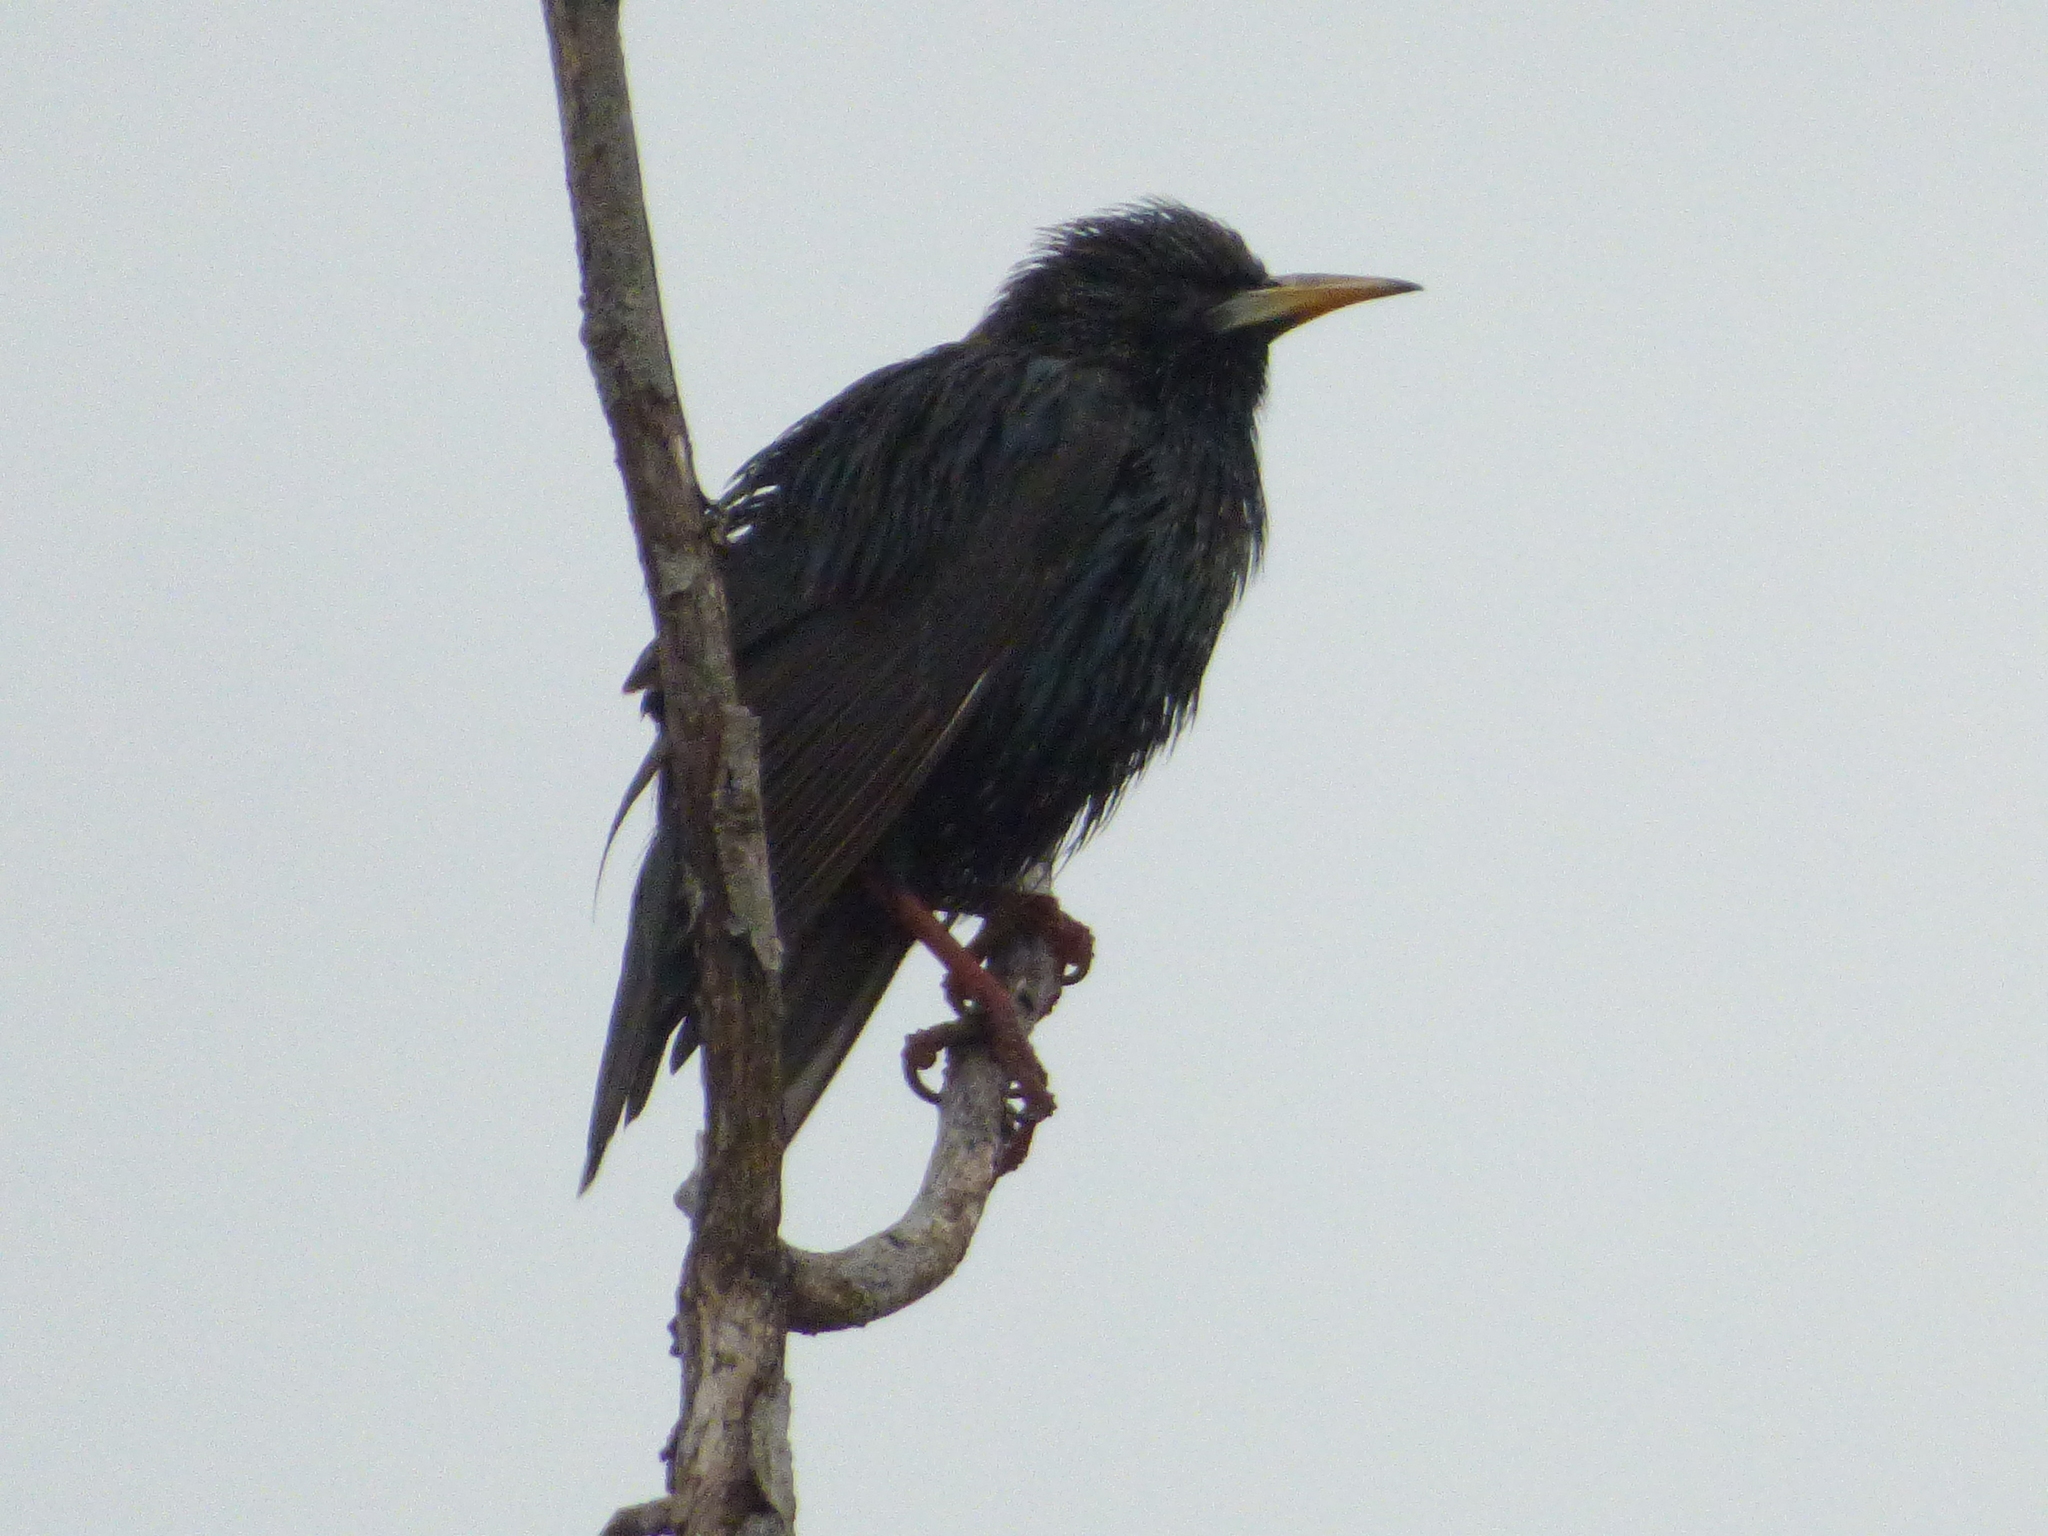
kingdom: Animalia
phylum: Chordata
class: Aves
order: Passeriformes
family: Sturnidae
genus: Sturnus
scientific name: Sturnus vulgaris
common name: Common starling
